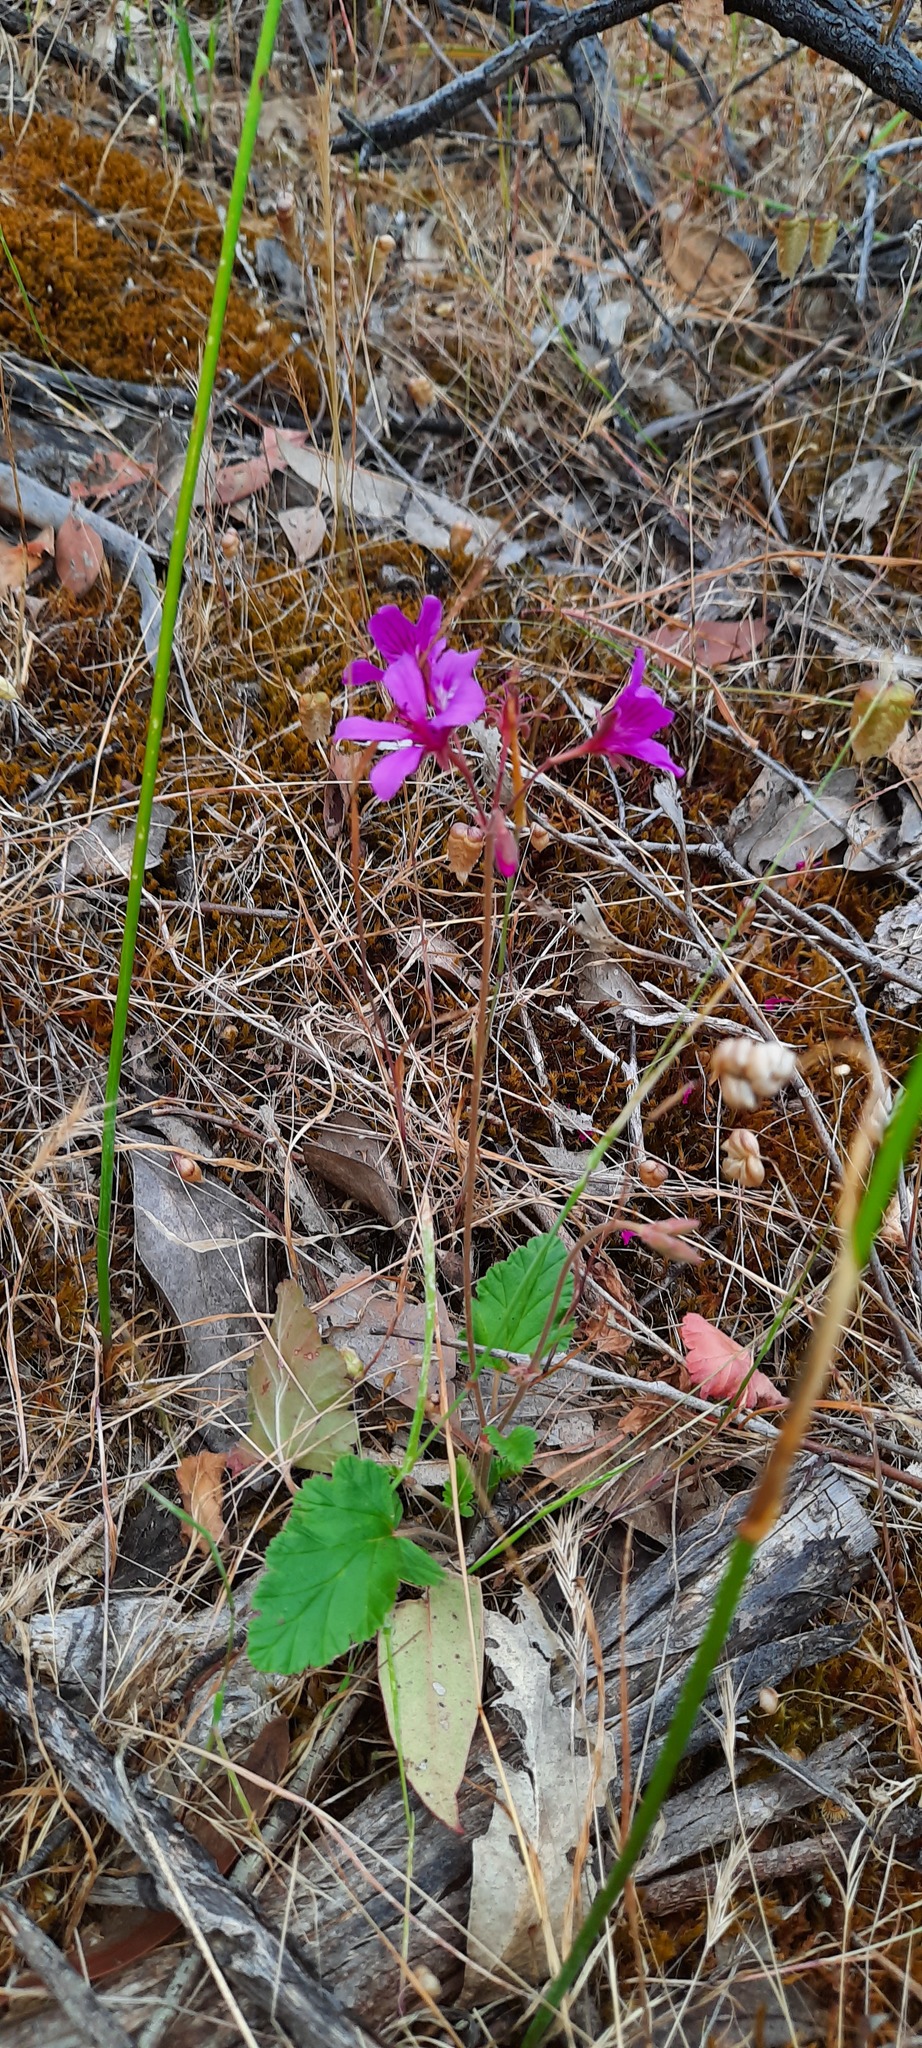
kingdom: Plantae
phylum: Tracheophyta
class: Magnoliopsida
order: Geraniales
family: Geraniaceae
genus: Pelargonium
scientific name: Pelargonium rodneyanum
